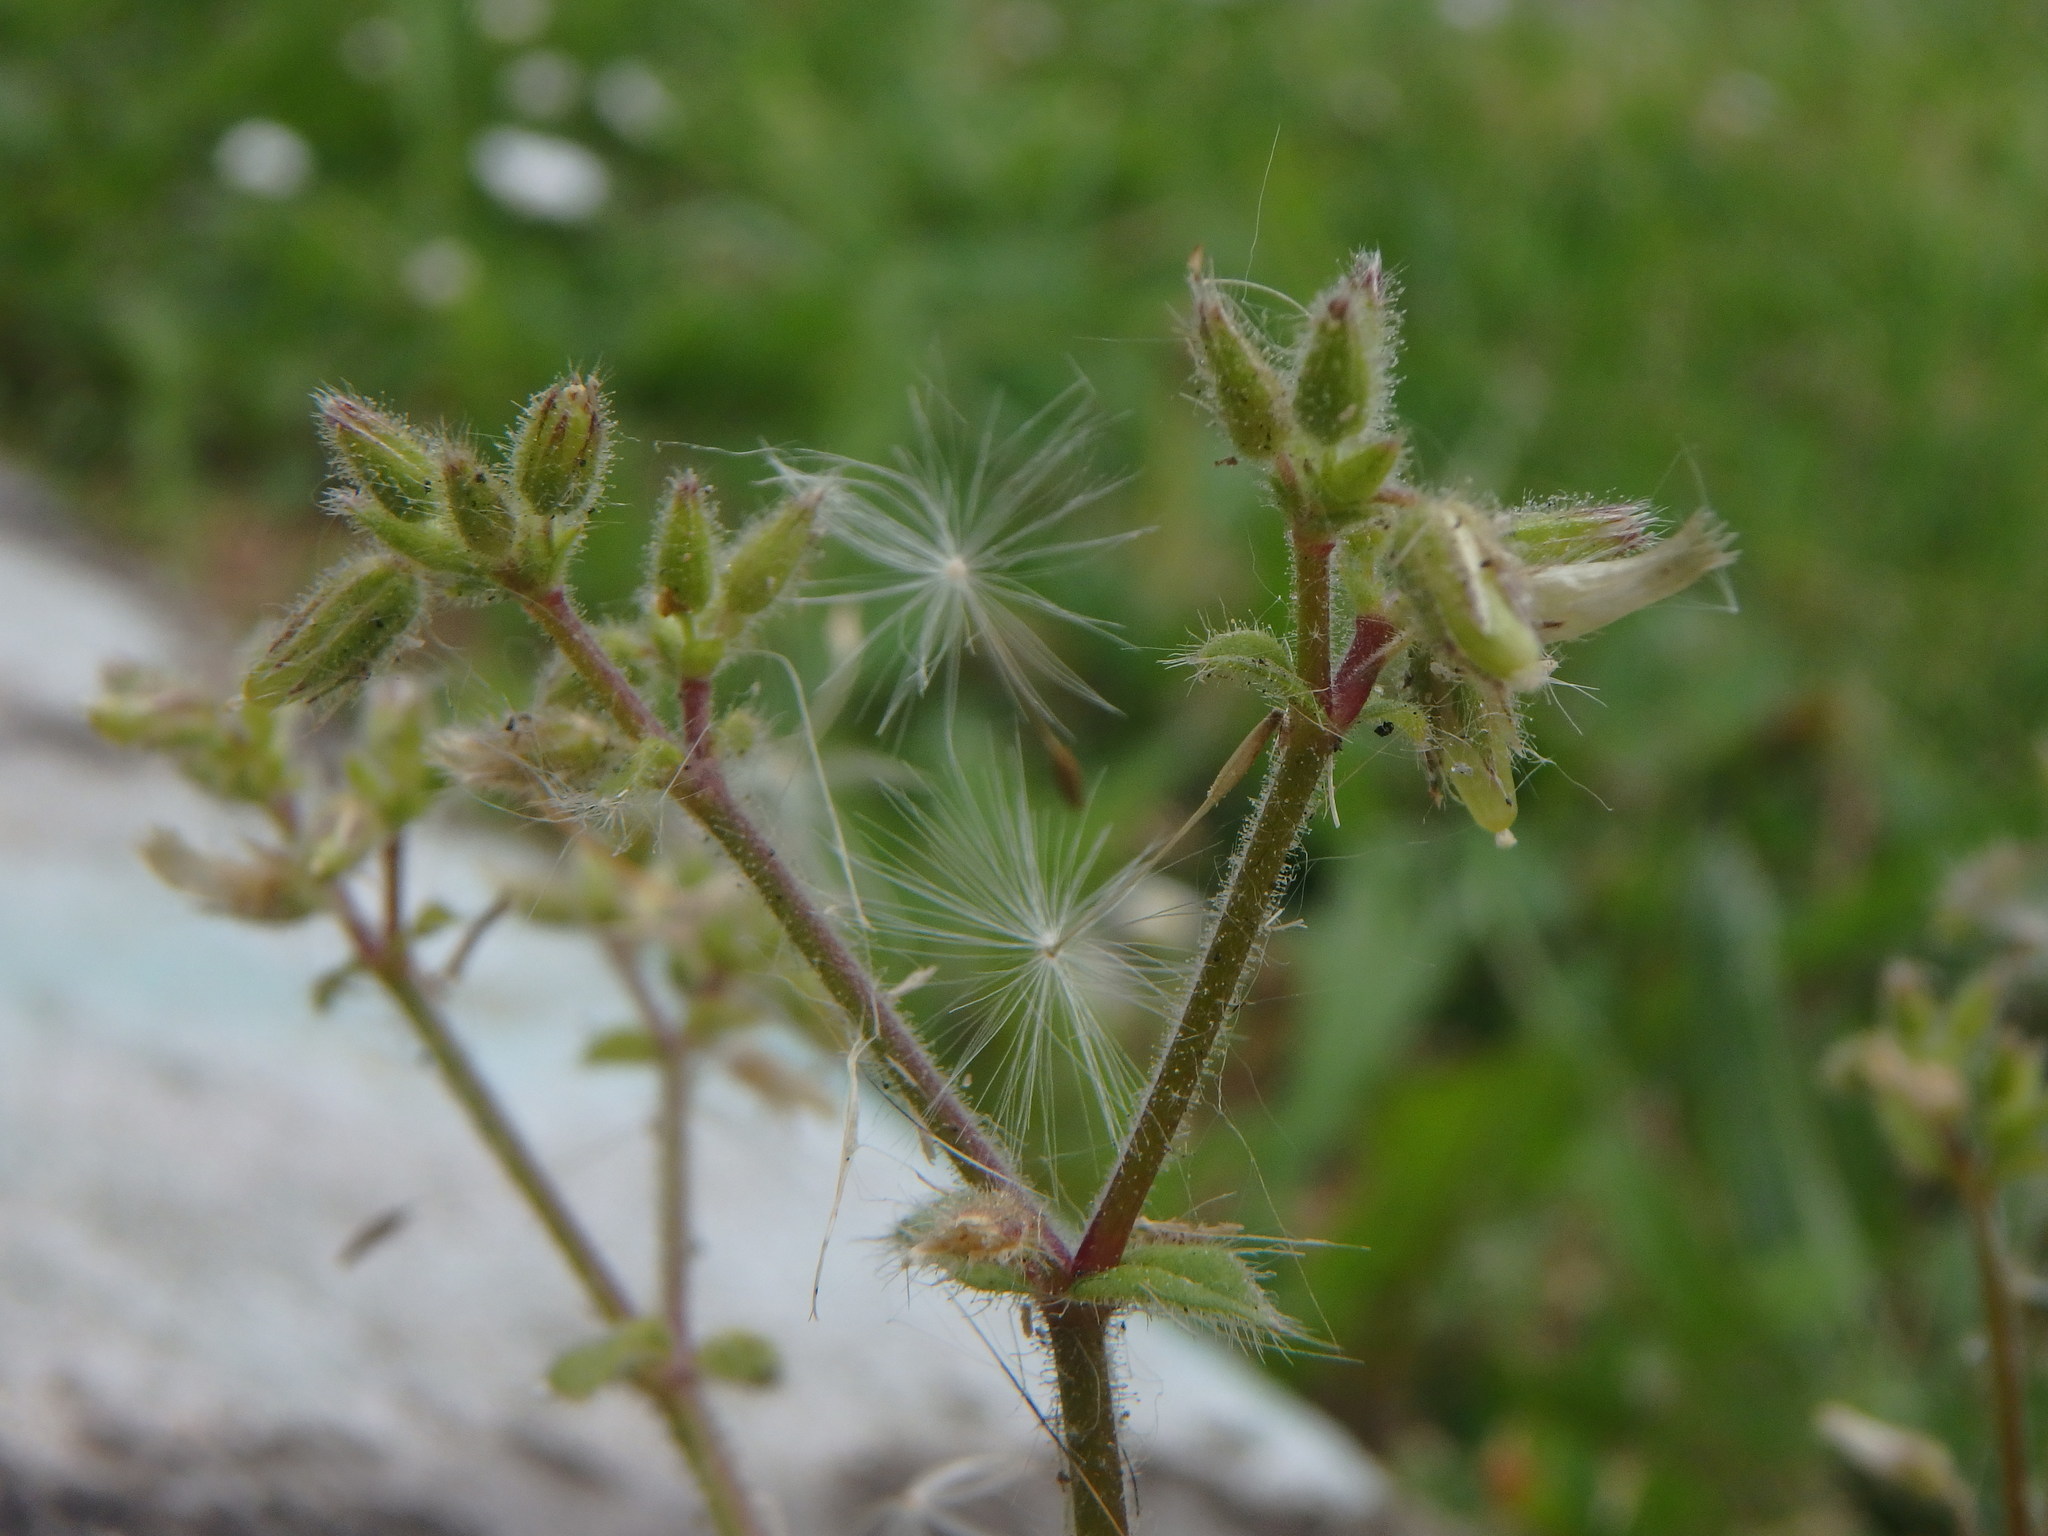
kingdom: Plantae
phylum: Tracheophyta
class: Magnoliopsida
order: Caryophyllales
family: Caryophyllaceae
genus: Cerastium
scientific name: Cerastium glomeratum
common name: Sticky chickweed
